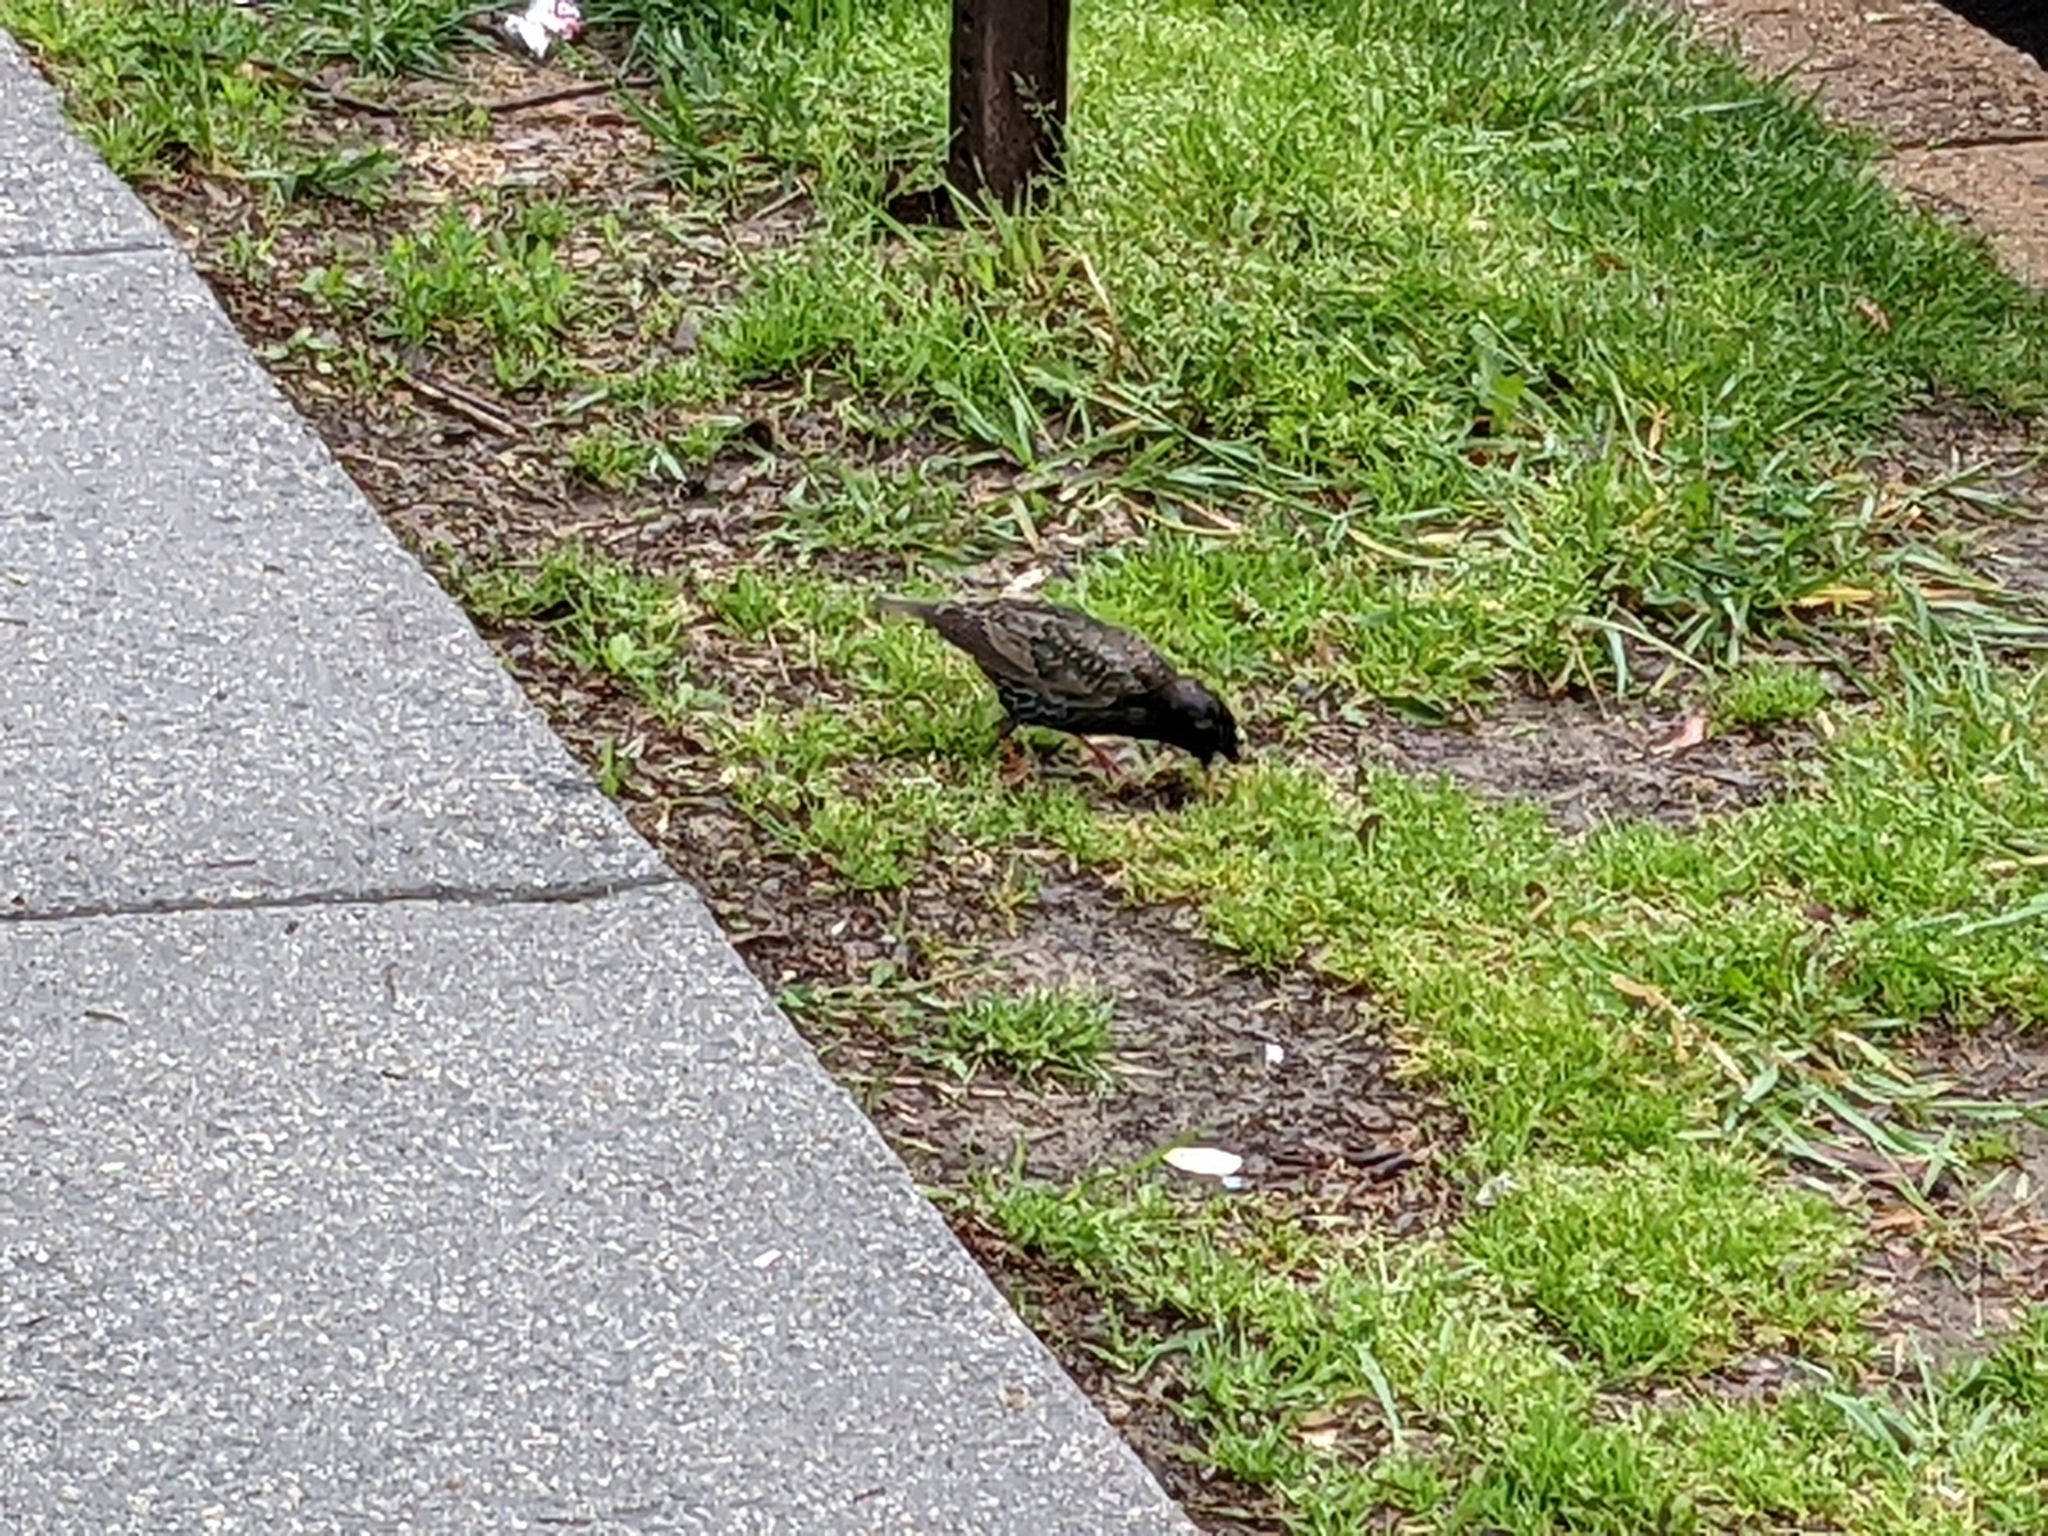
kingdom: Animalia
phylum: Chordata
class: Aves
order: Passeriformes
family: Sturnidae
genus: Sturnus
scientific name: Sturnus vulgaris
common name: Common starling
